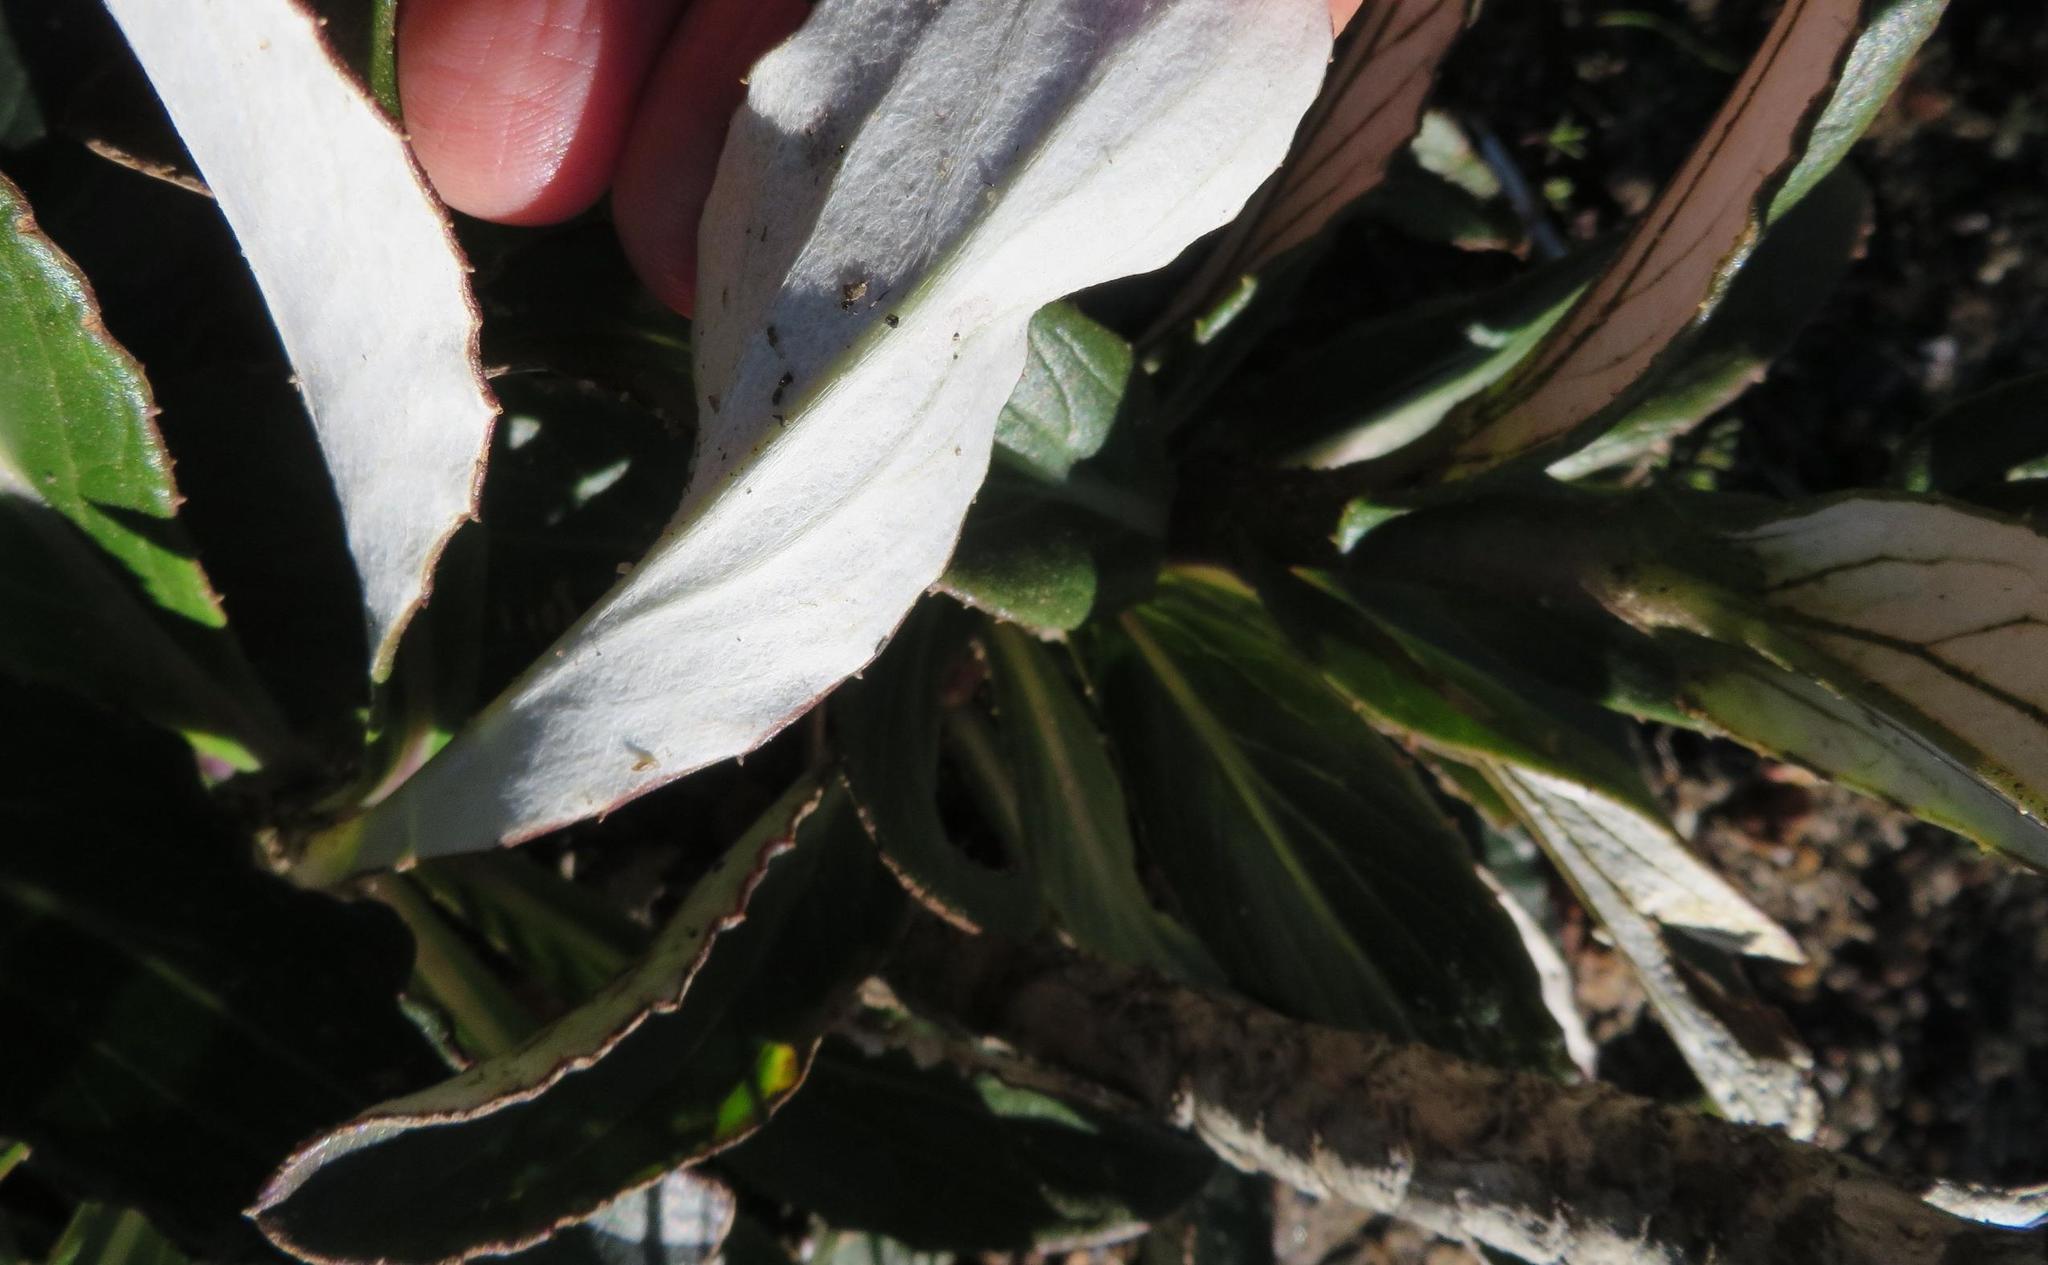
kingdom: Plantae
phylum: Tracheophyta
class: Magnoliopsida
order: Asterales
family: Asteraceae
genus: Berkheya
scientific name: Berkheya herbacea
